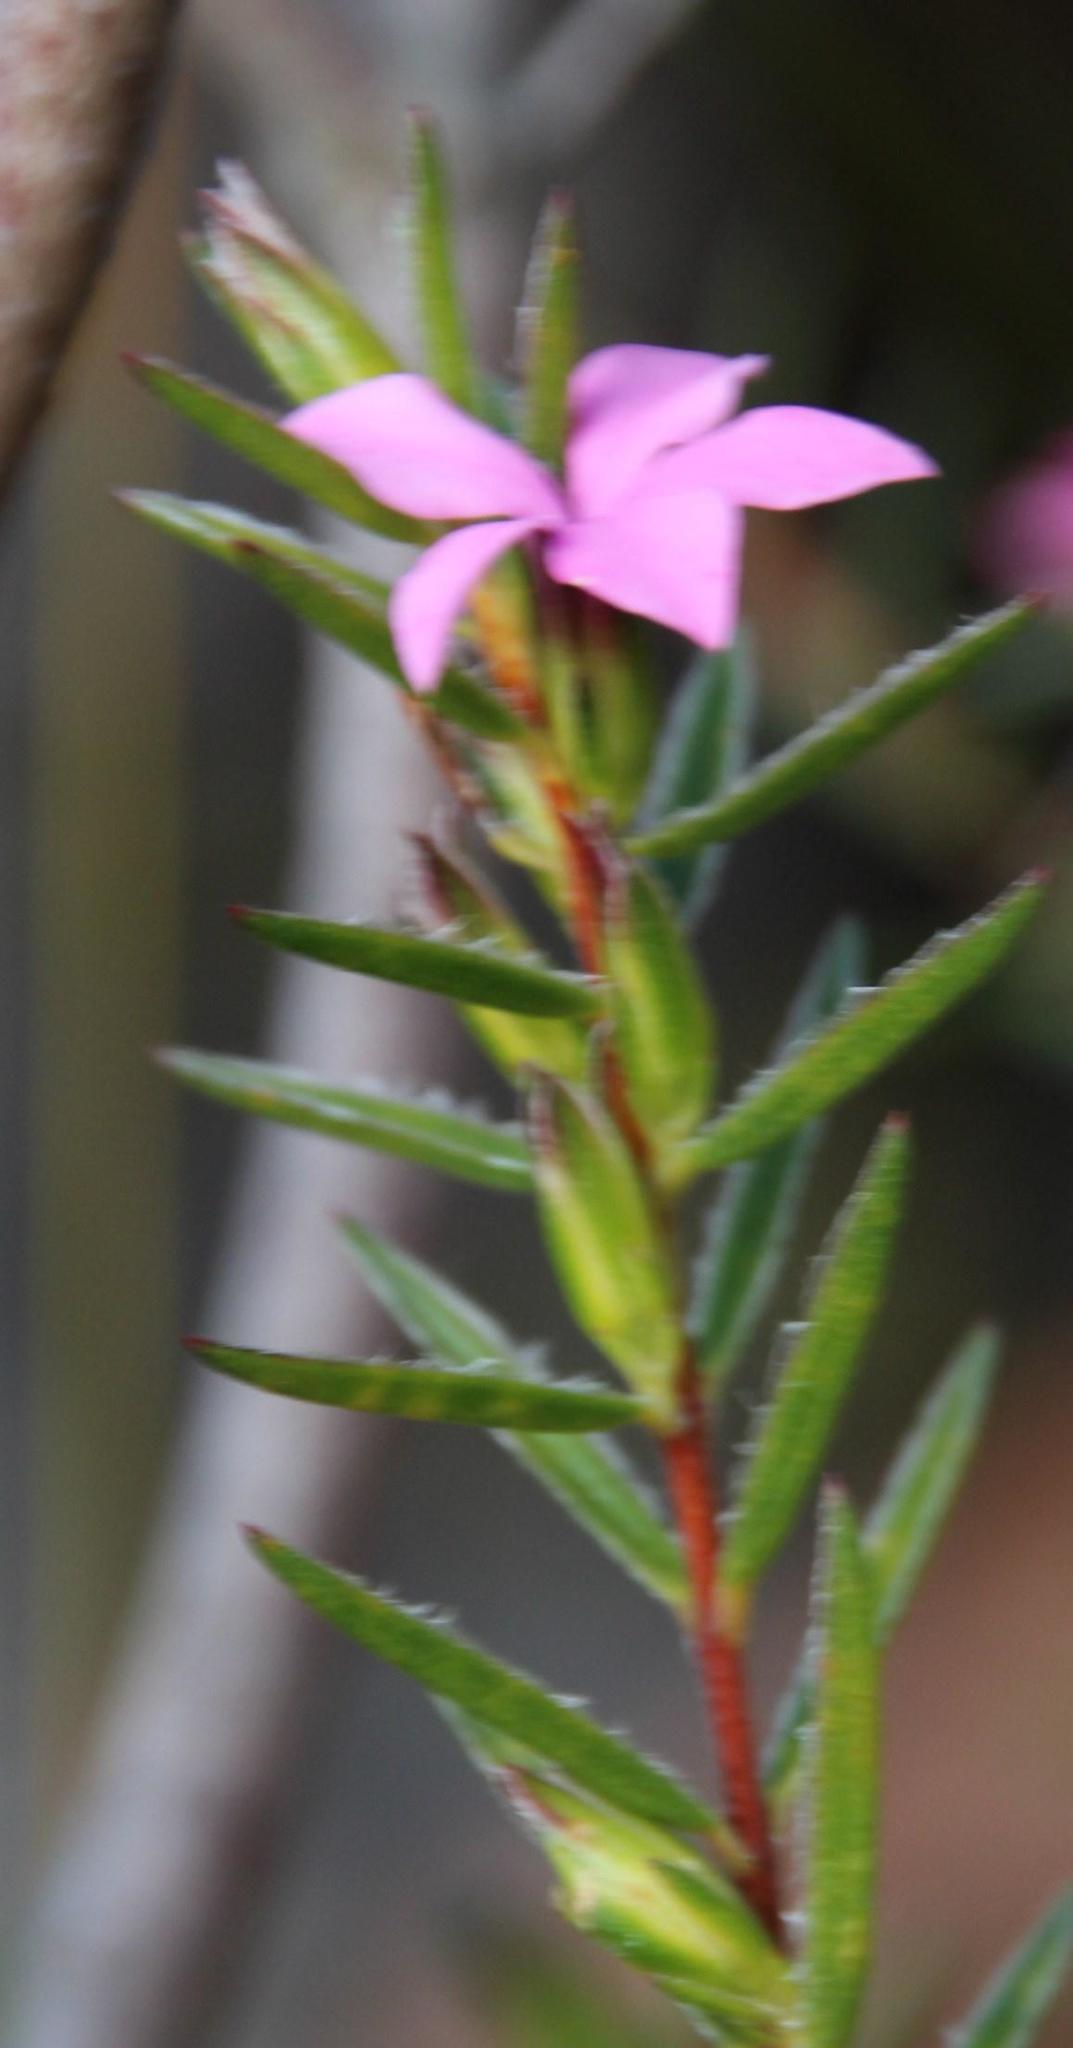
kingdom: Plantae
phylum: Tracheophyta
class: Magnoliopsida
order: Sapindales
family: Rutaceae
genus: Acmadenia
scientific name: Acmadenia trigona
